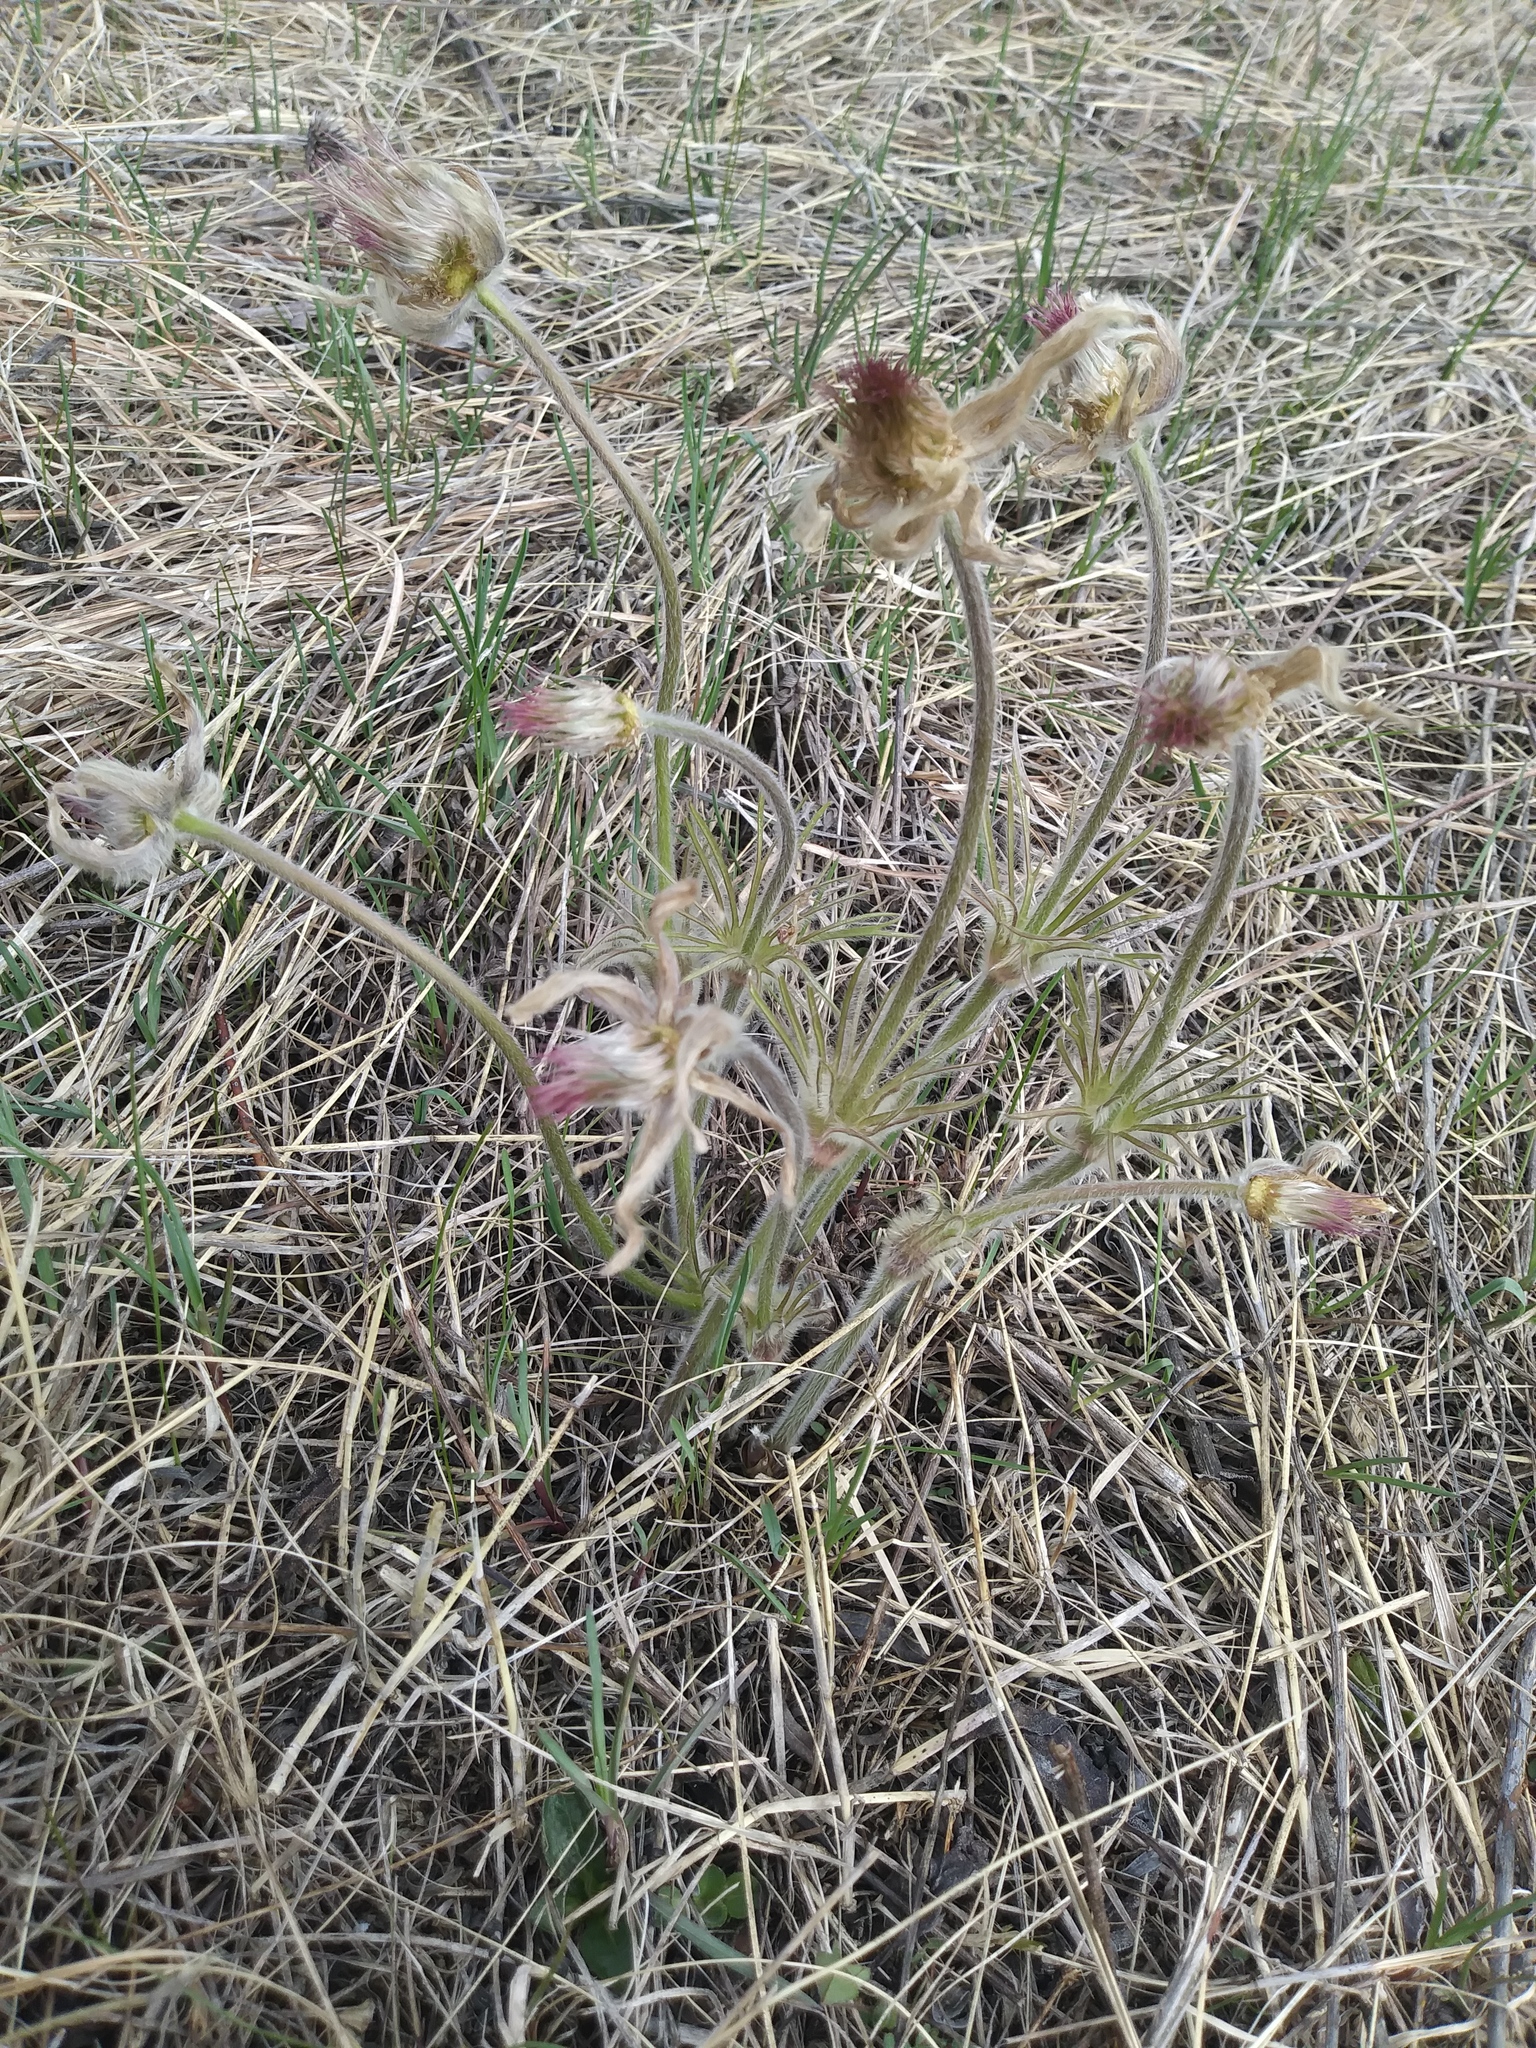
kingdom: Plantae
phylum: Tracheophyta
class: Magnoliopsida
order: Ranunculales
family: Ranunculaceae
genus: Pulsatilla
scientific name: Pulsatilla nuttalliana
